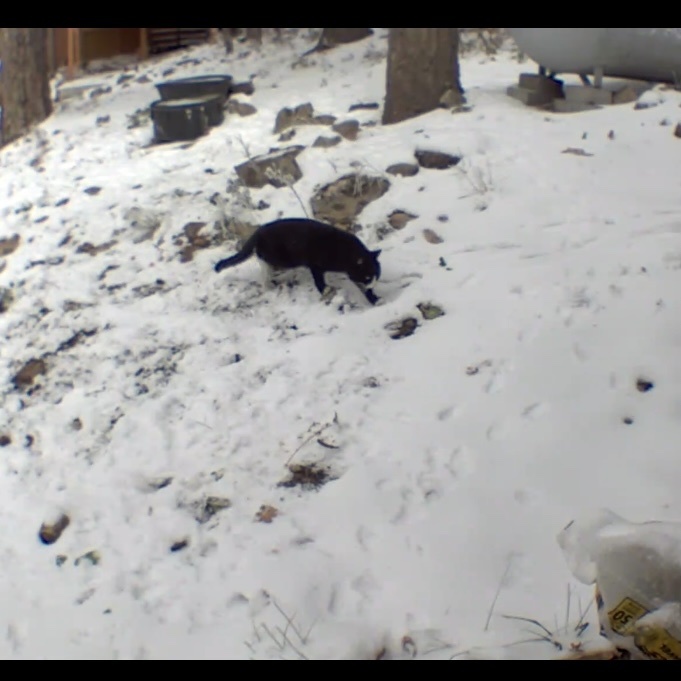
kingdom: Animalia
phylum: Chordata
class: Mammalia
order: Carnivora
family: Felidae
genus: Felis
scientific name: Felis catus
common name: Domestic cat
